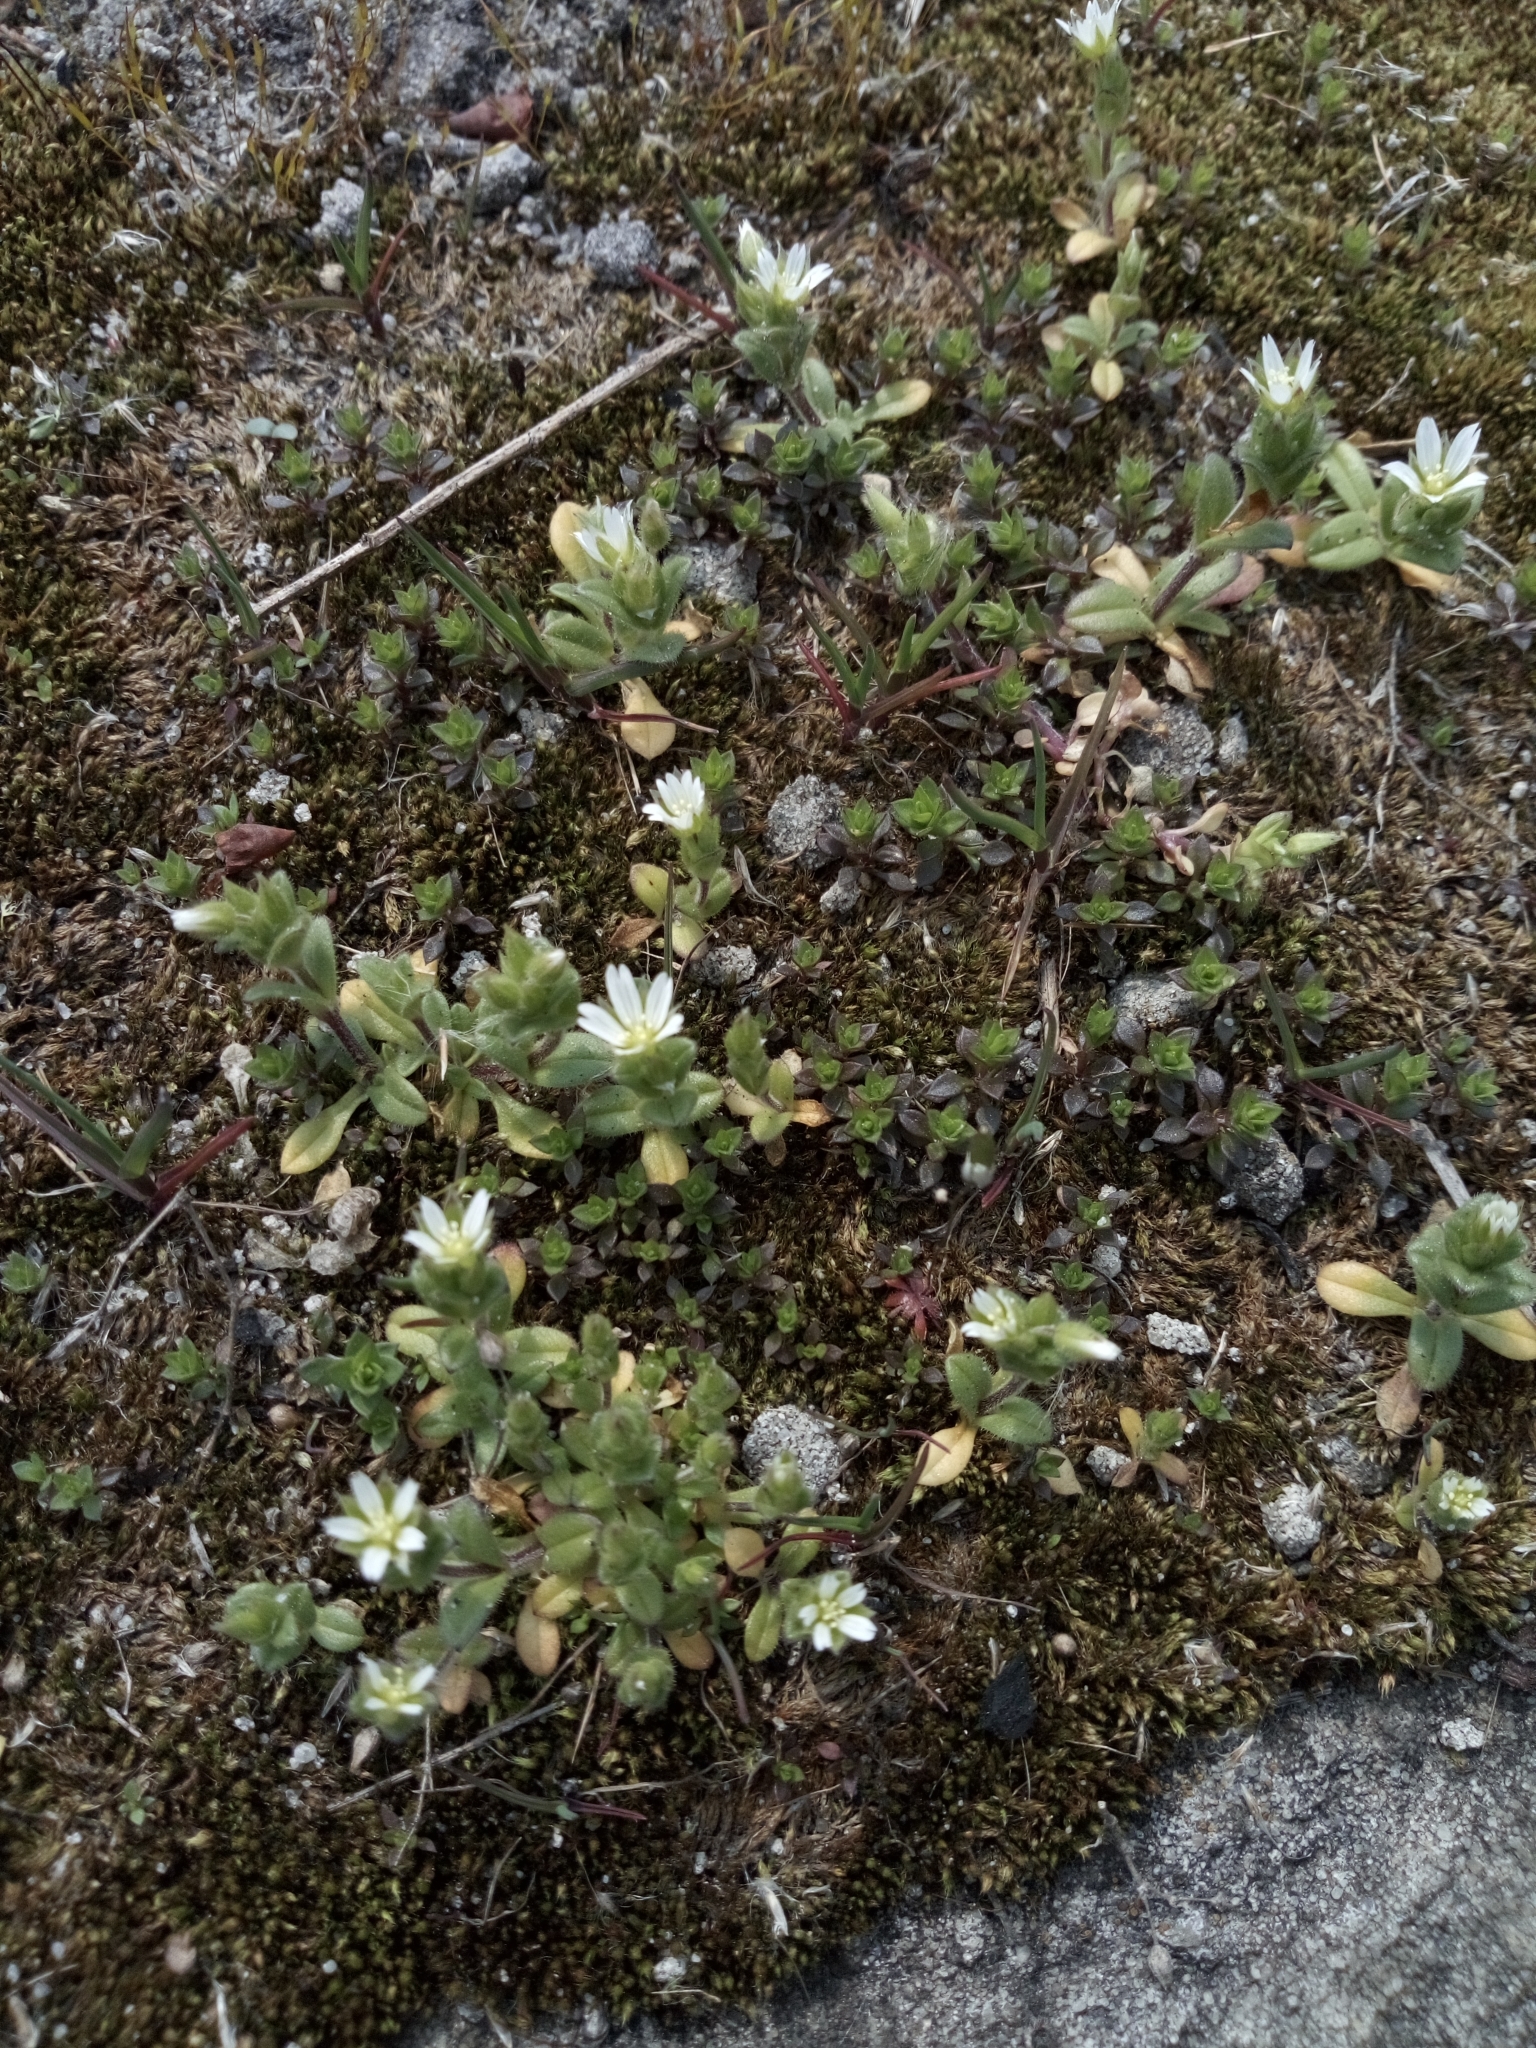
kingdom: Plantae
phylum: Tracheophyta
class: Magnoliopsida
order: Caryophyllales
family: Caryophyllaceae
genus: Cerastium
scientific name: Cerastium semidecandrum
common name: Little mouse-ear
